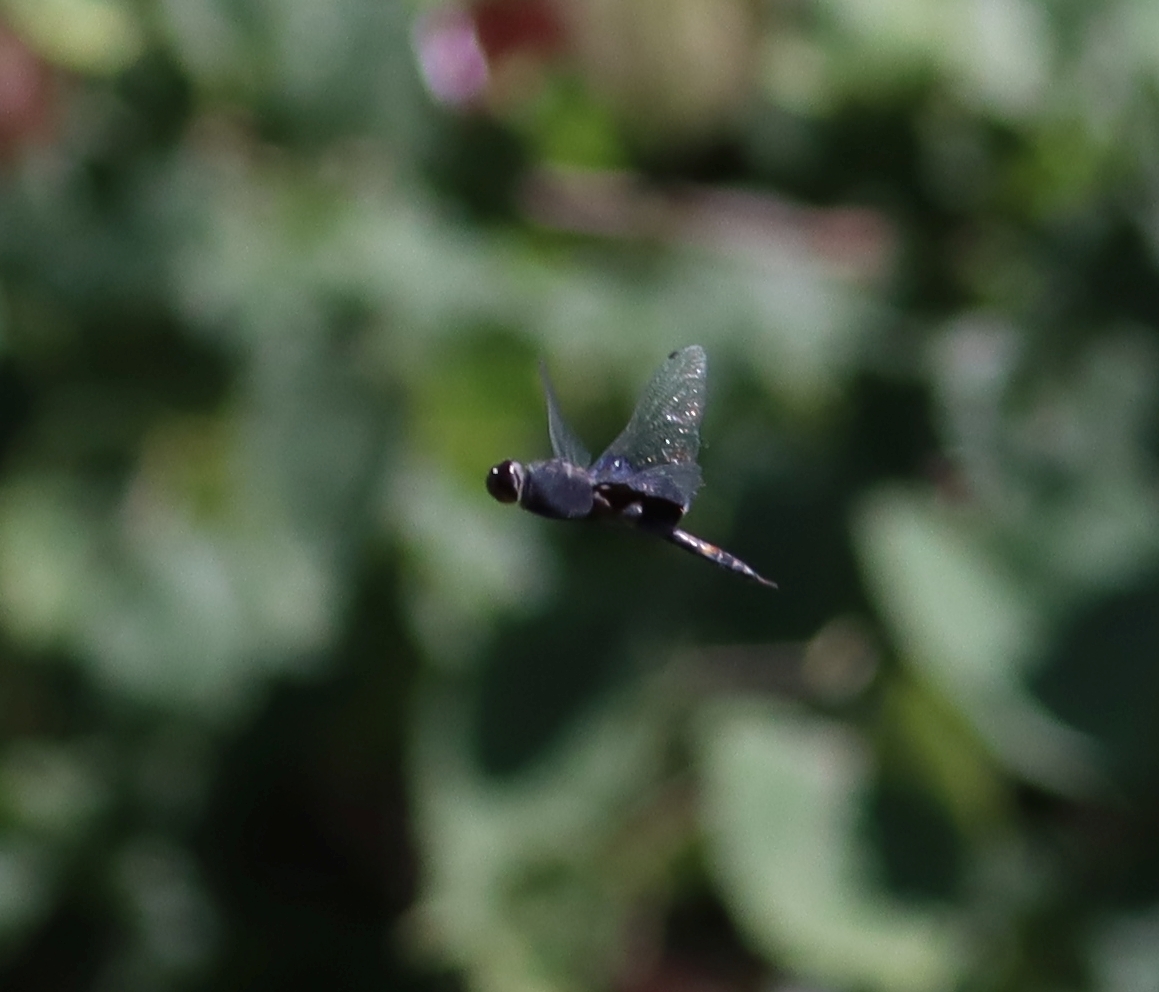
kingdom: Animalia
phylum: Arthropoda
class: Insecta
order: Odonata
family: Libellulidae
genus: Tramea
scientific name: Tramea lacerata
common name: Black saddlebags
